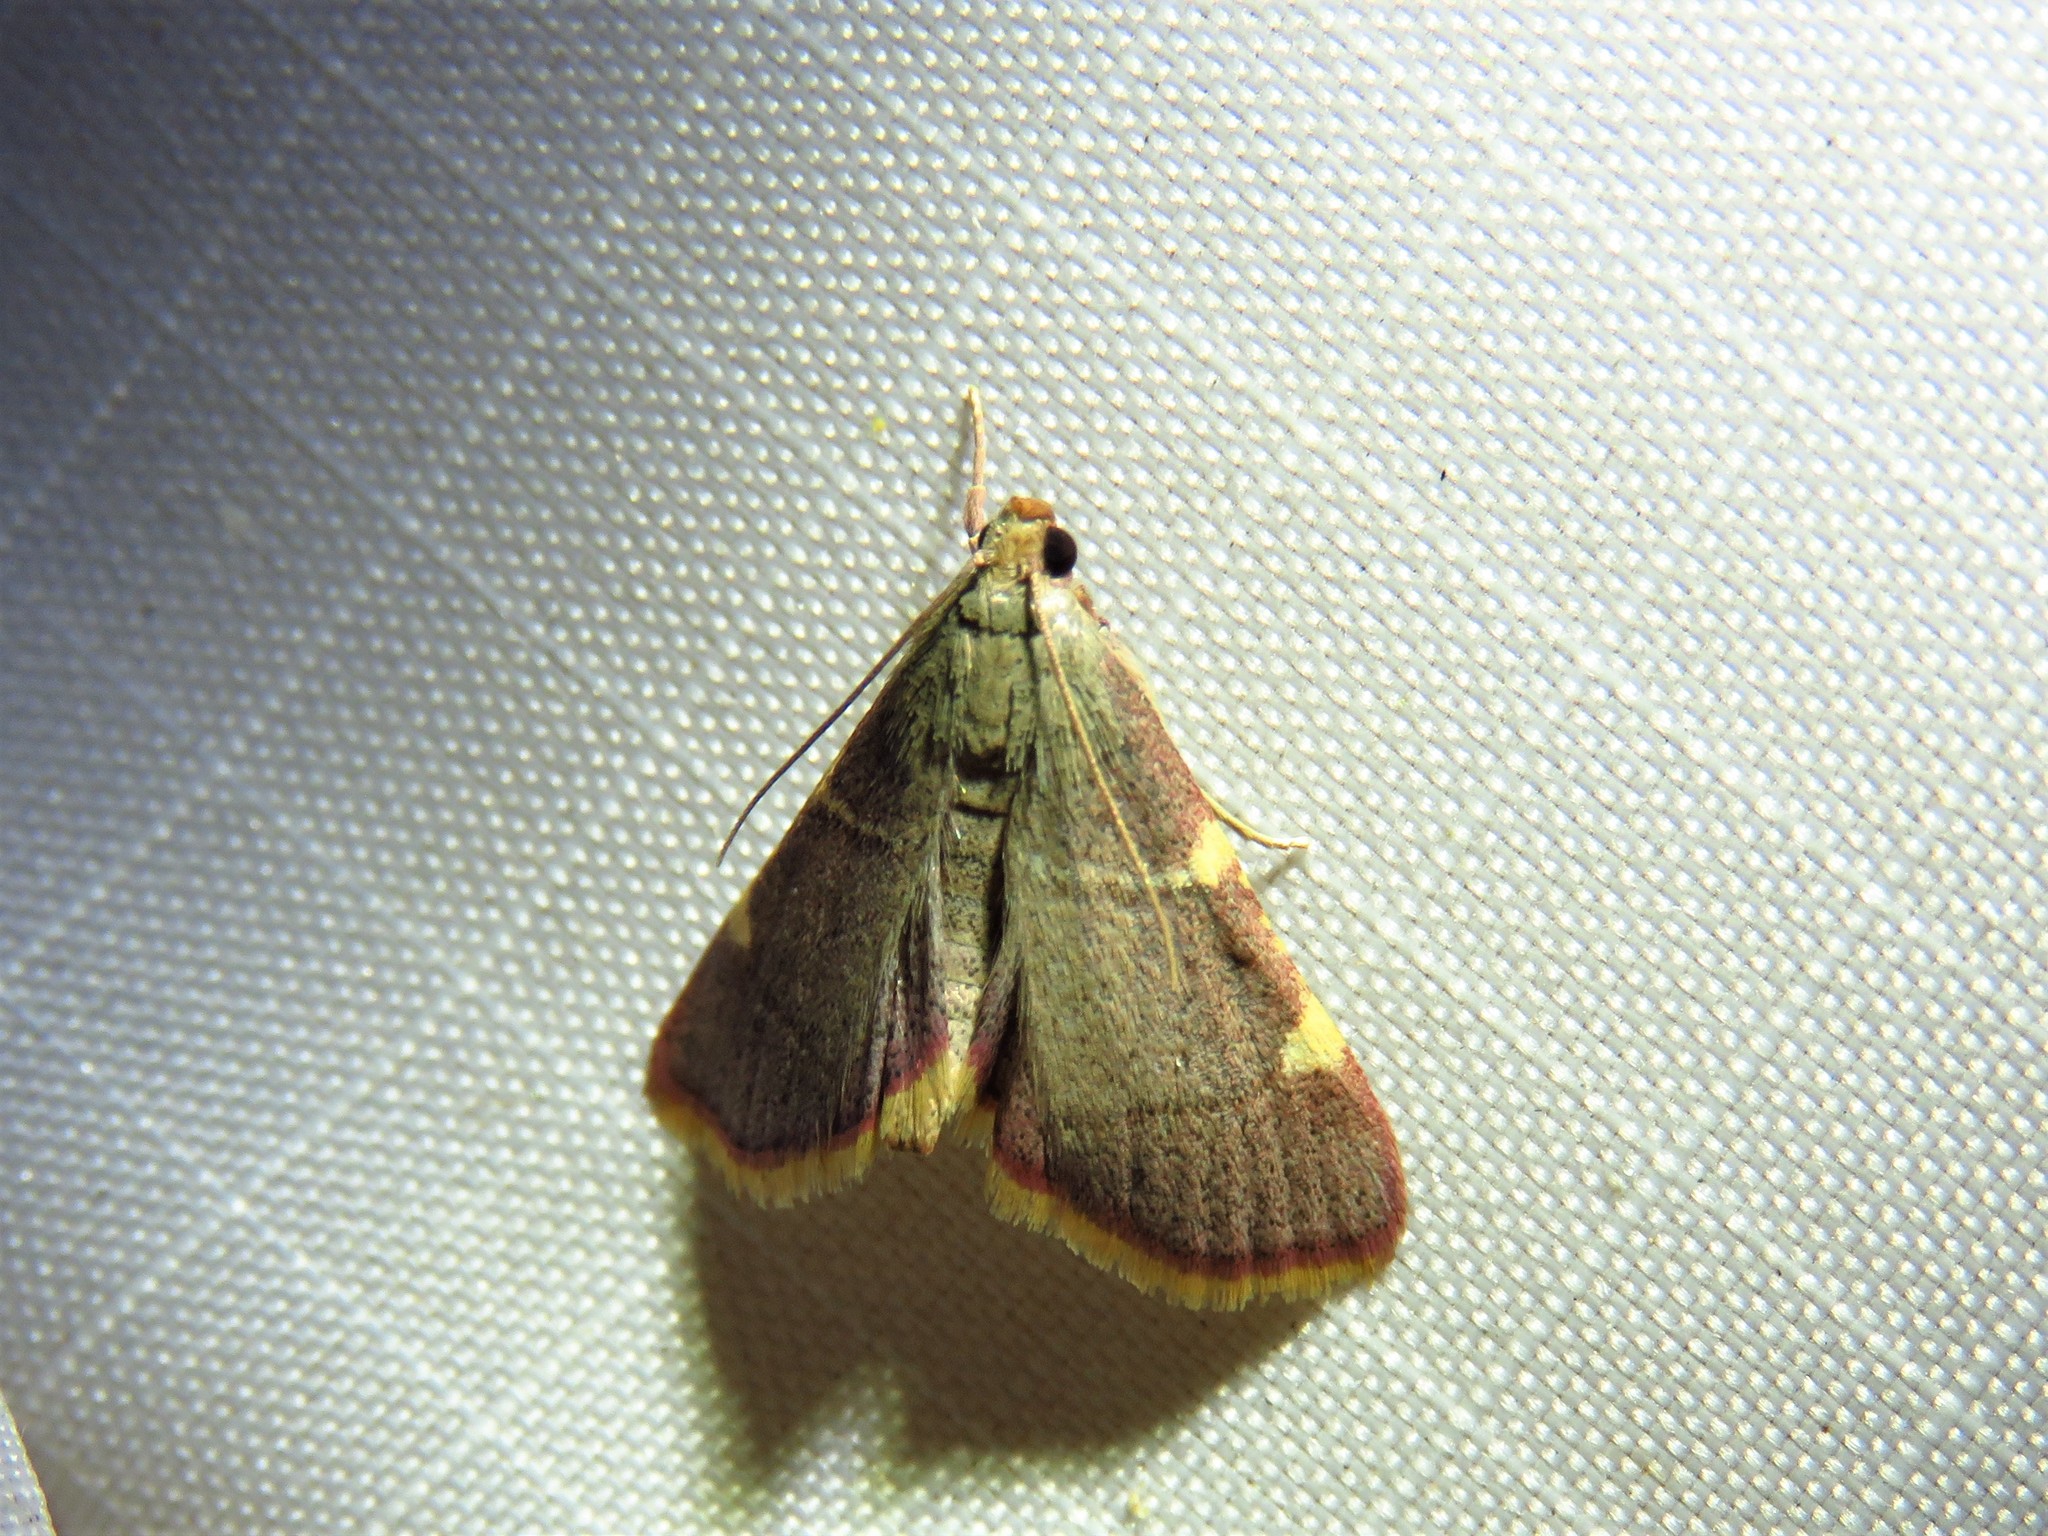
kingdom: Animalia
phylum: Arthropoda
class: Insecta
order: Lepidoptera
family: Pyralidae
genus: Hypsopygia
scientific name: Hypsopygia olinalis
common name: Yellow-fringed dolichomia moth
